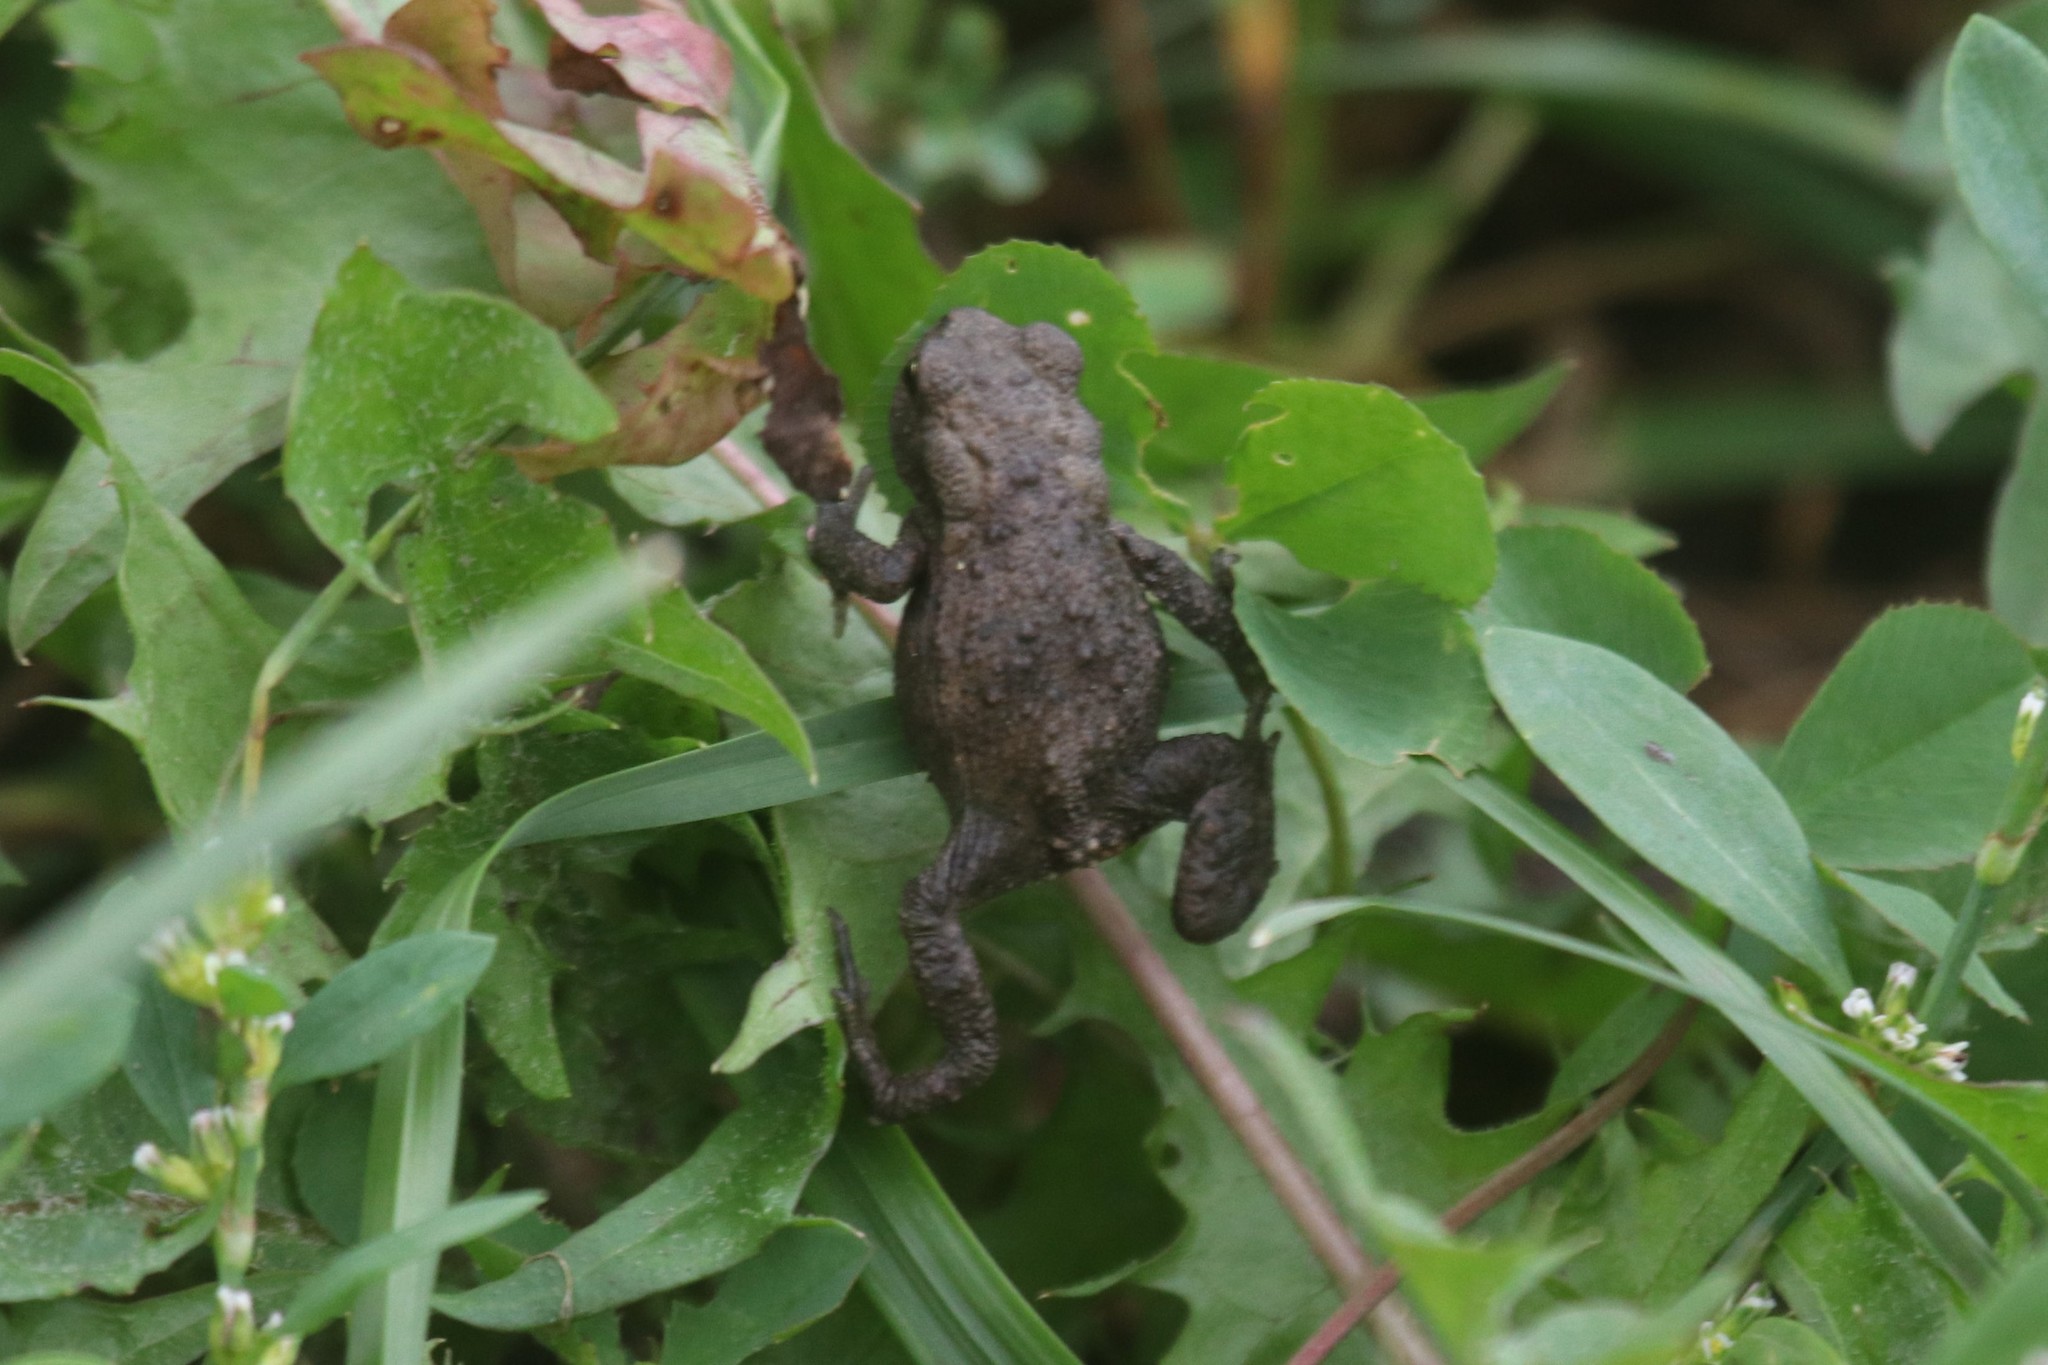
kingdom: Animalia
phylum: Chordata
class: Amphibia
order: Anura
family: Bufonidae
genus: Bufo
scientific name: Bufo bufo
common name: Common toad
